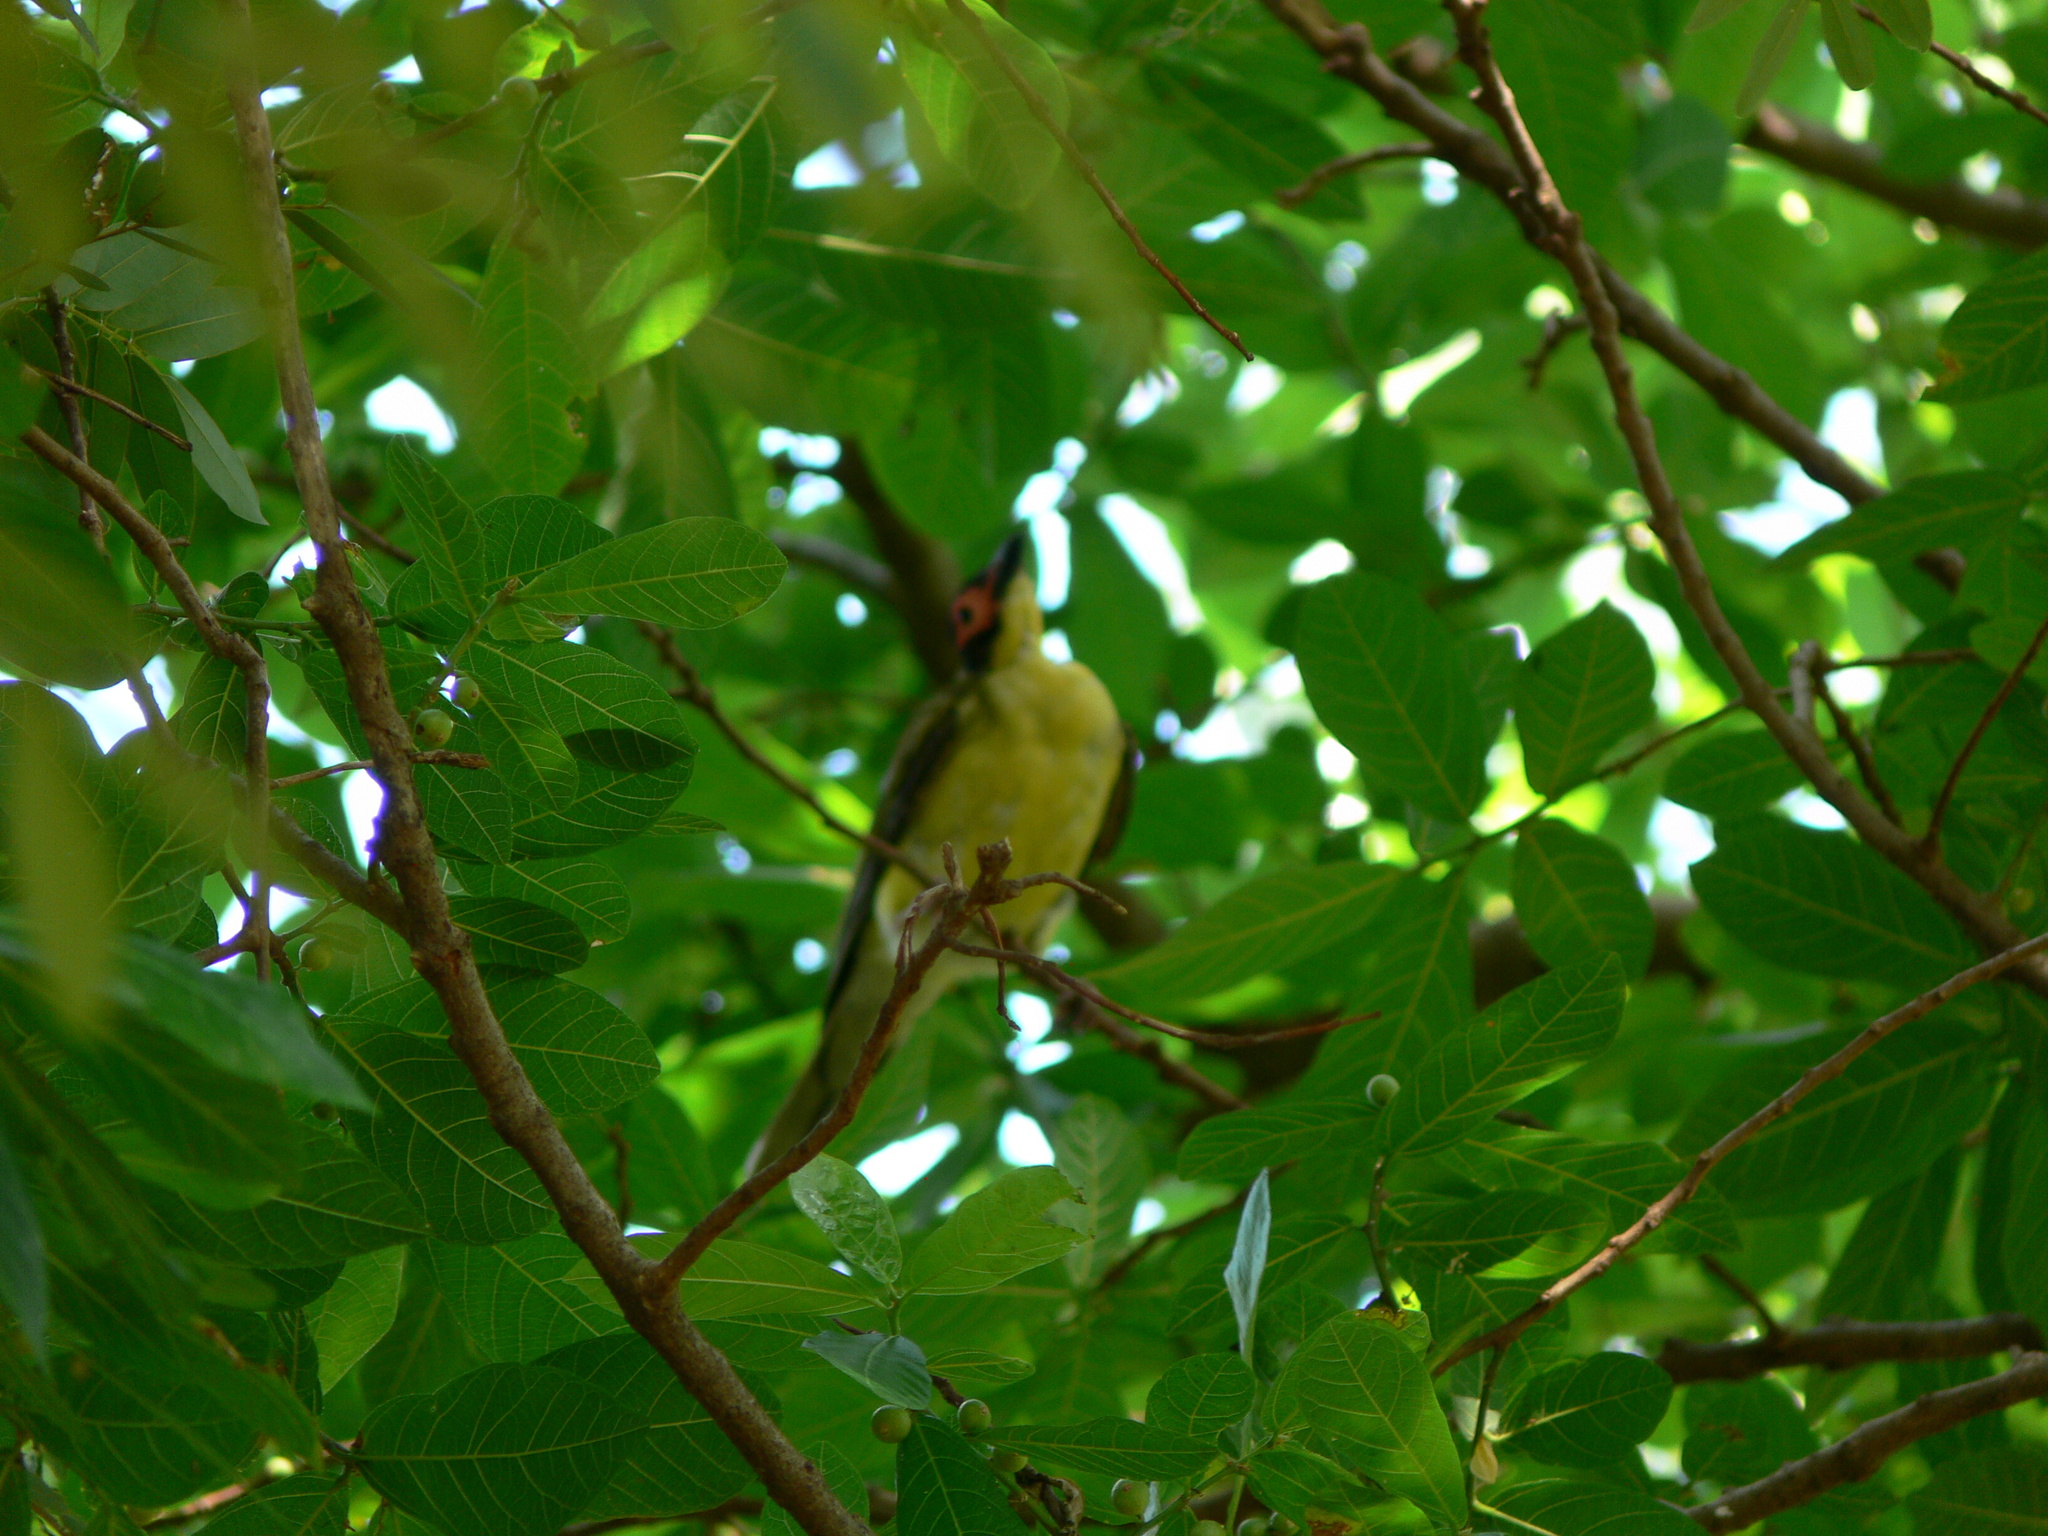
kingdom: Animalia
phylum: Chordata
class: Aves
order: Passeriformes
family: Oriolidae
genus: Sphecotheres
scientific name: Sphecotheres vieilloti
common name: Australasian figbird
